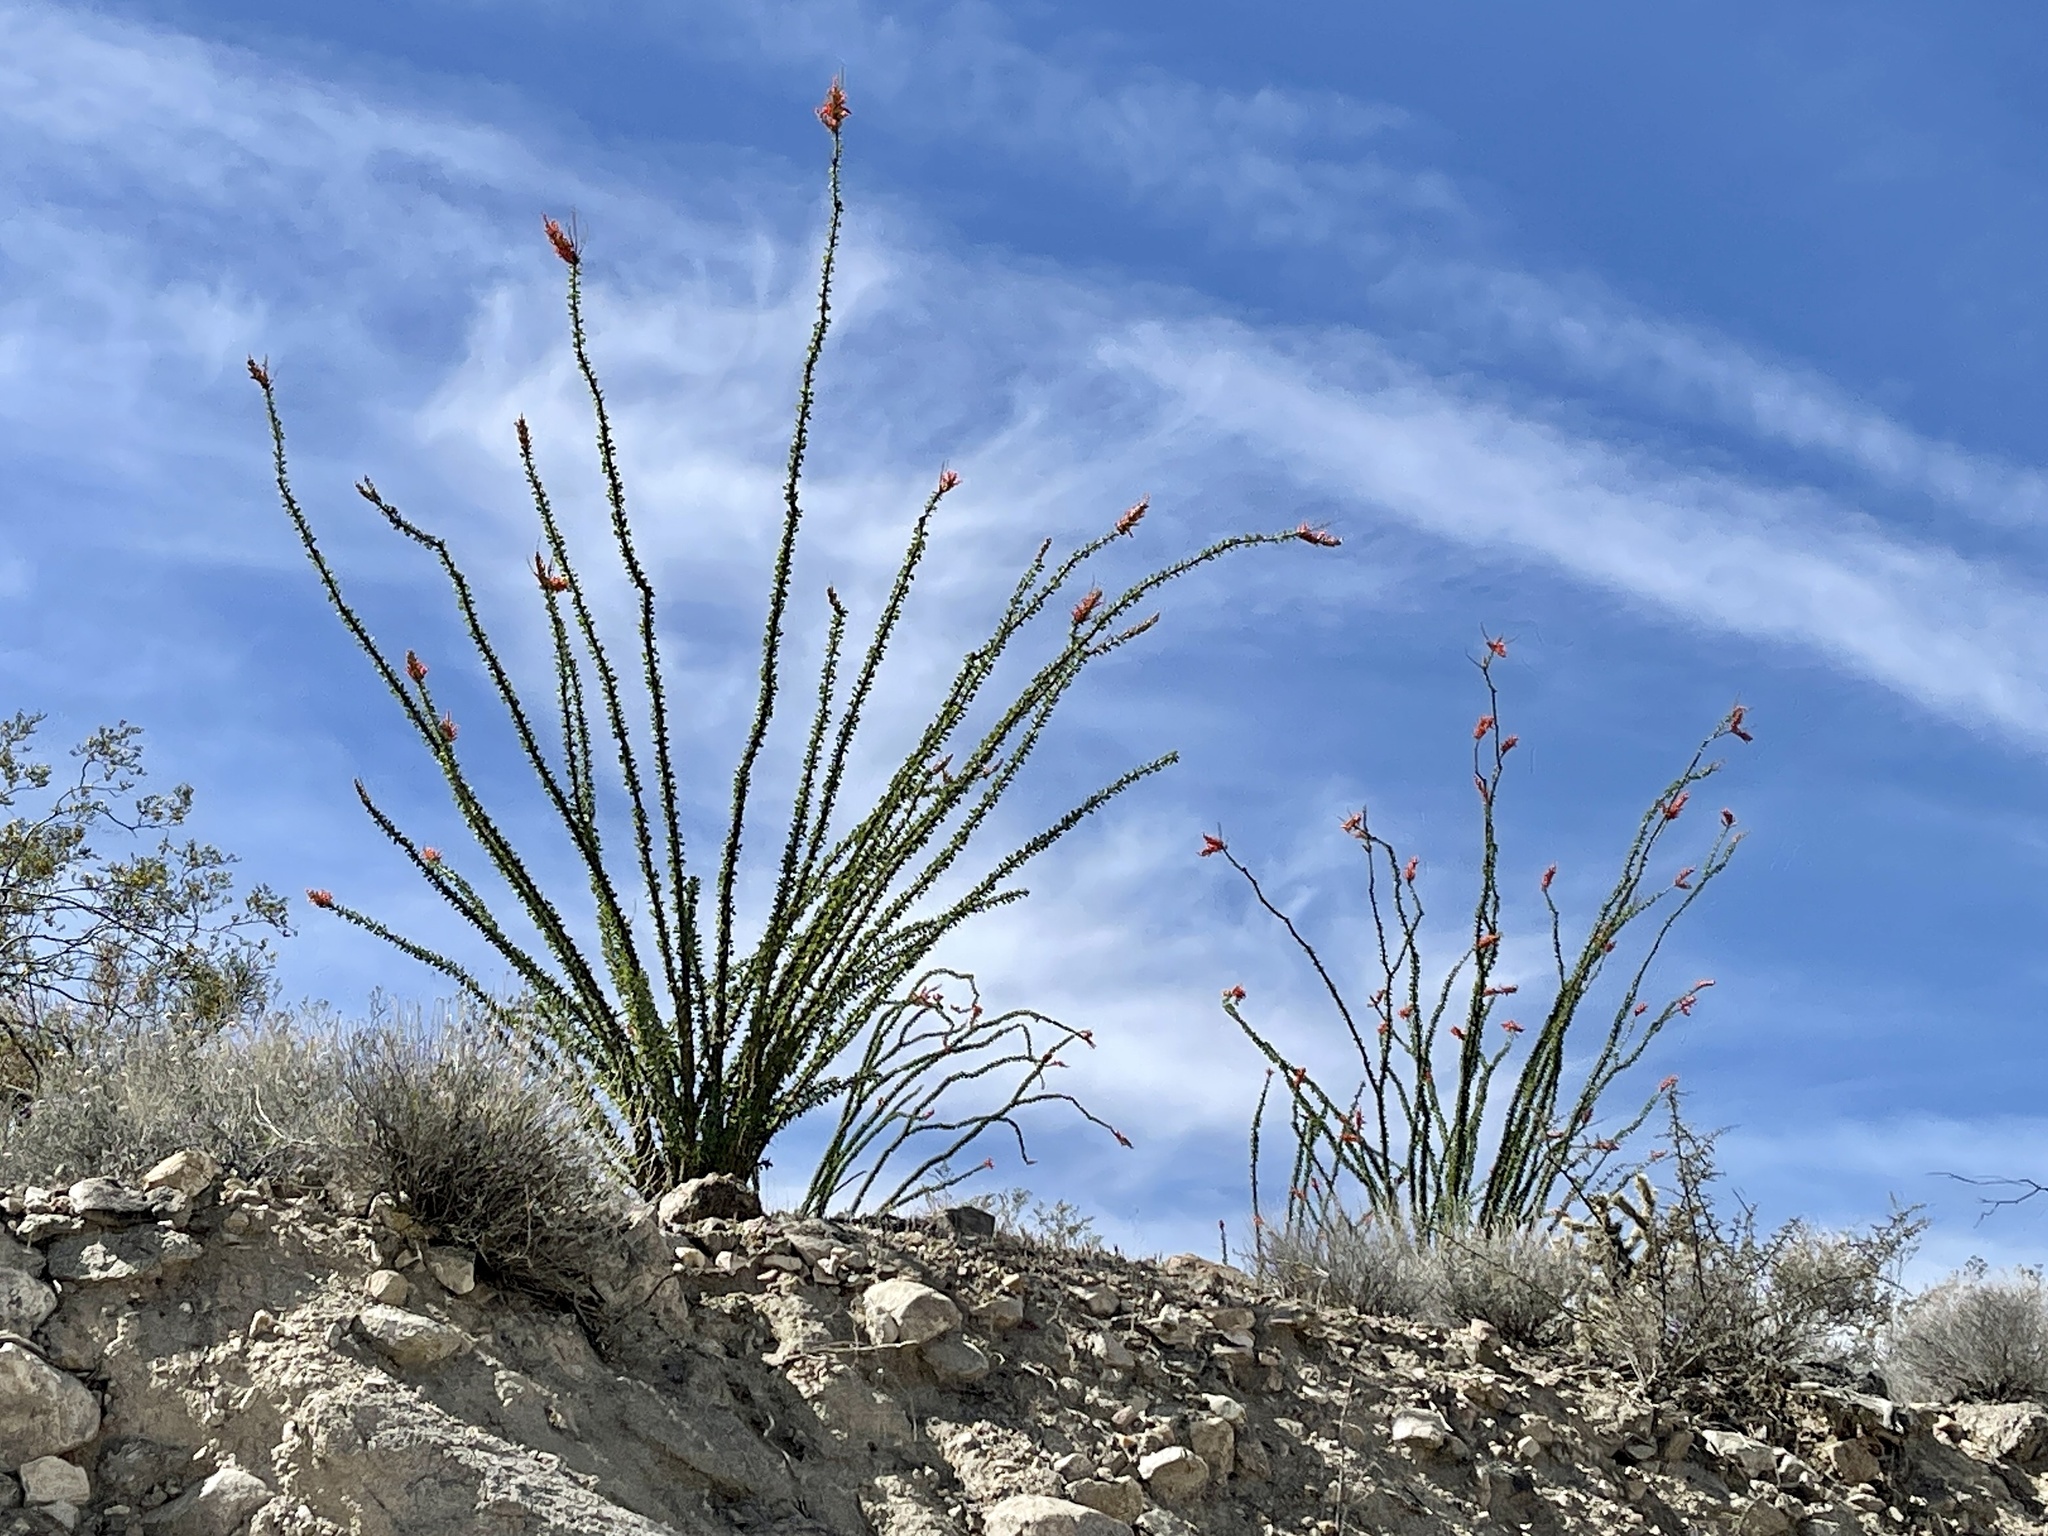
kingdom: Plantae
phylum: Tracheophyta
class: Magnoliopsida
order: Ericales
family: Fouquieriaceae
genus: Fouquieria
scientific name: Fouquieria splendens
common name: Vine-cactus
